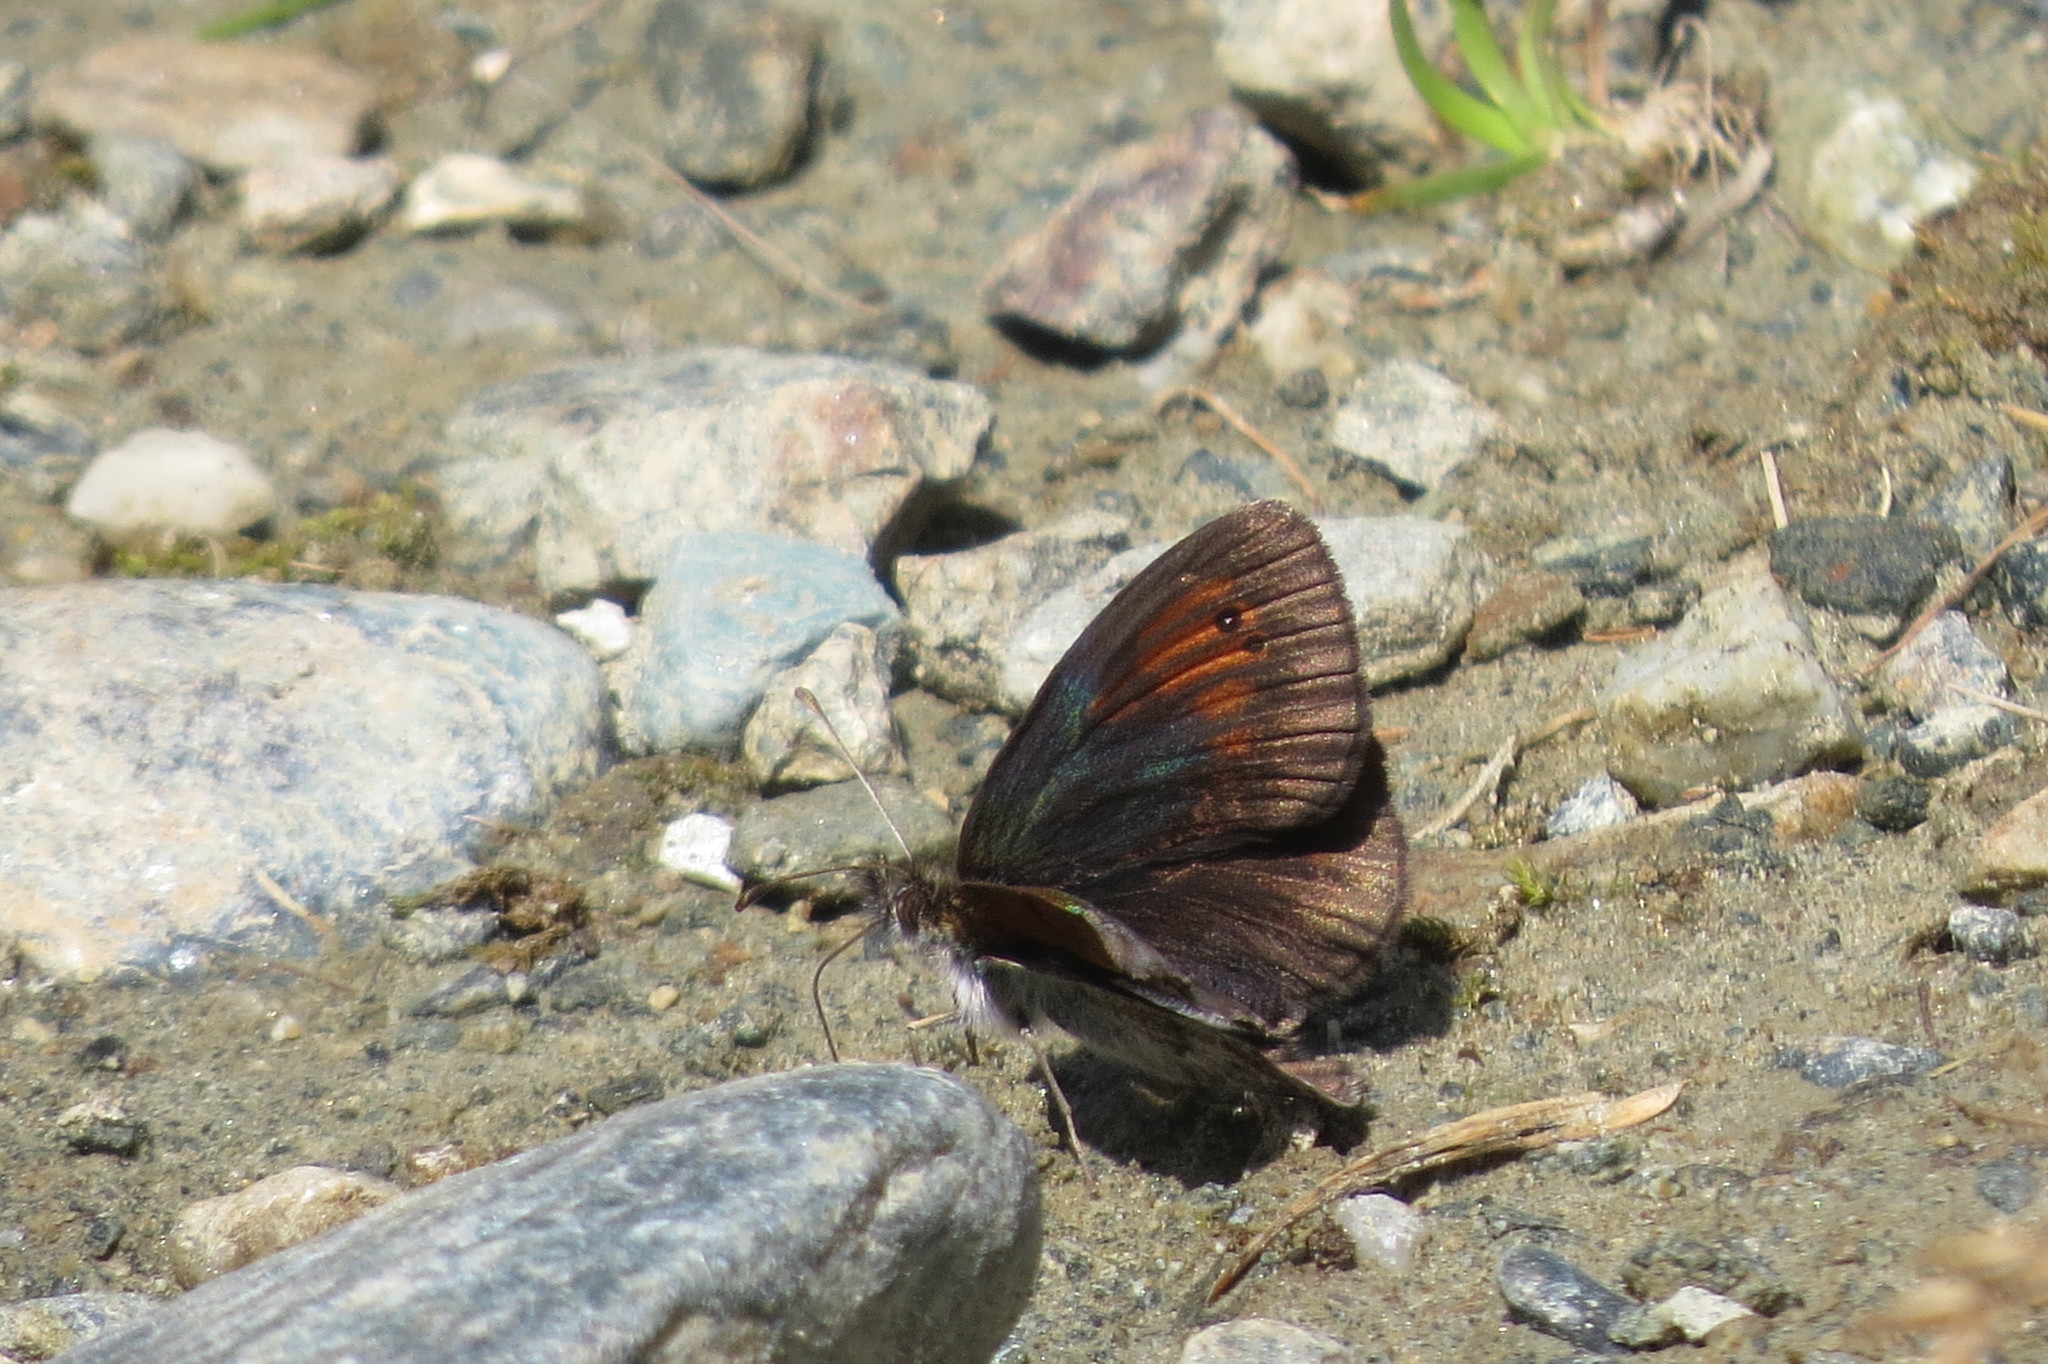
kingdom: Animalia
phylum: Arthropoda
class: Insecta
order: Lepidoptera
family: Nymphalidae
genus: Erebia
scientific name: Erebia tyndarus
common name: Swiss brassy ringlet
